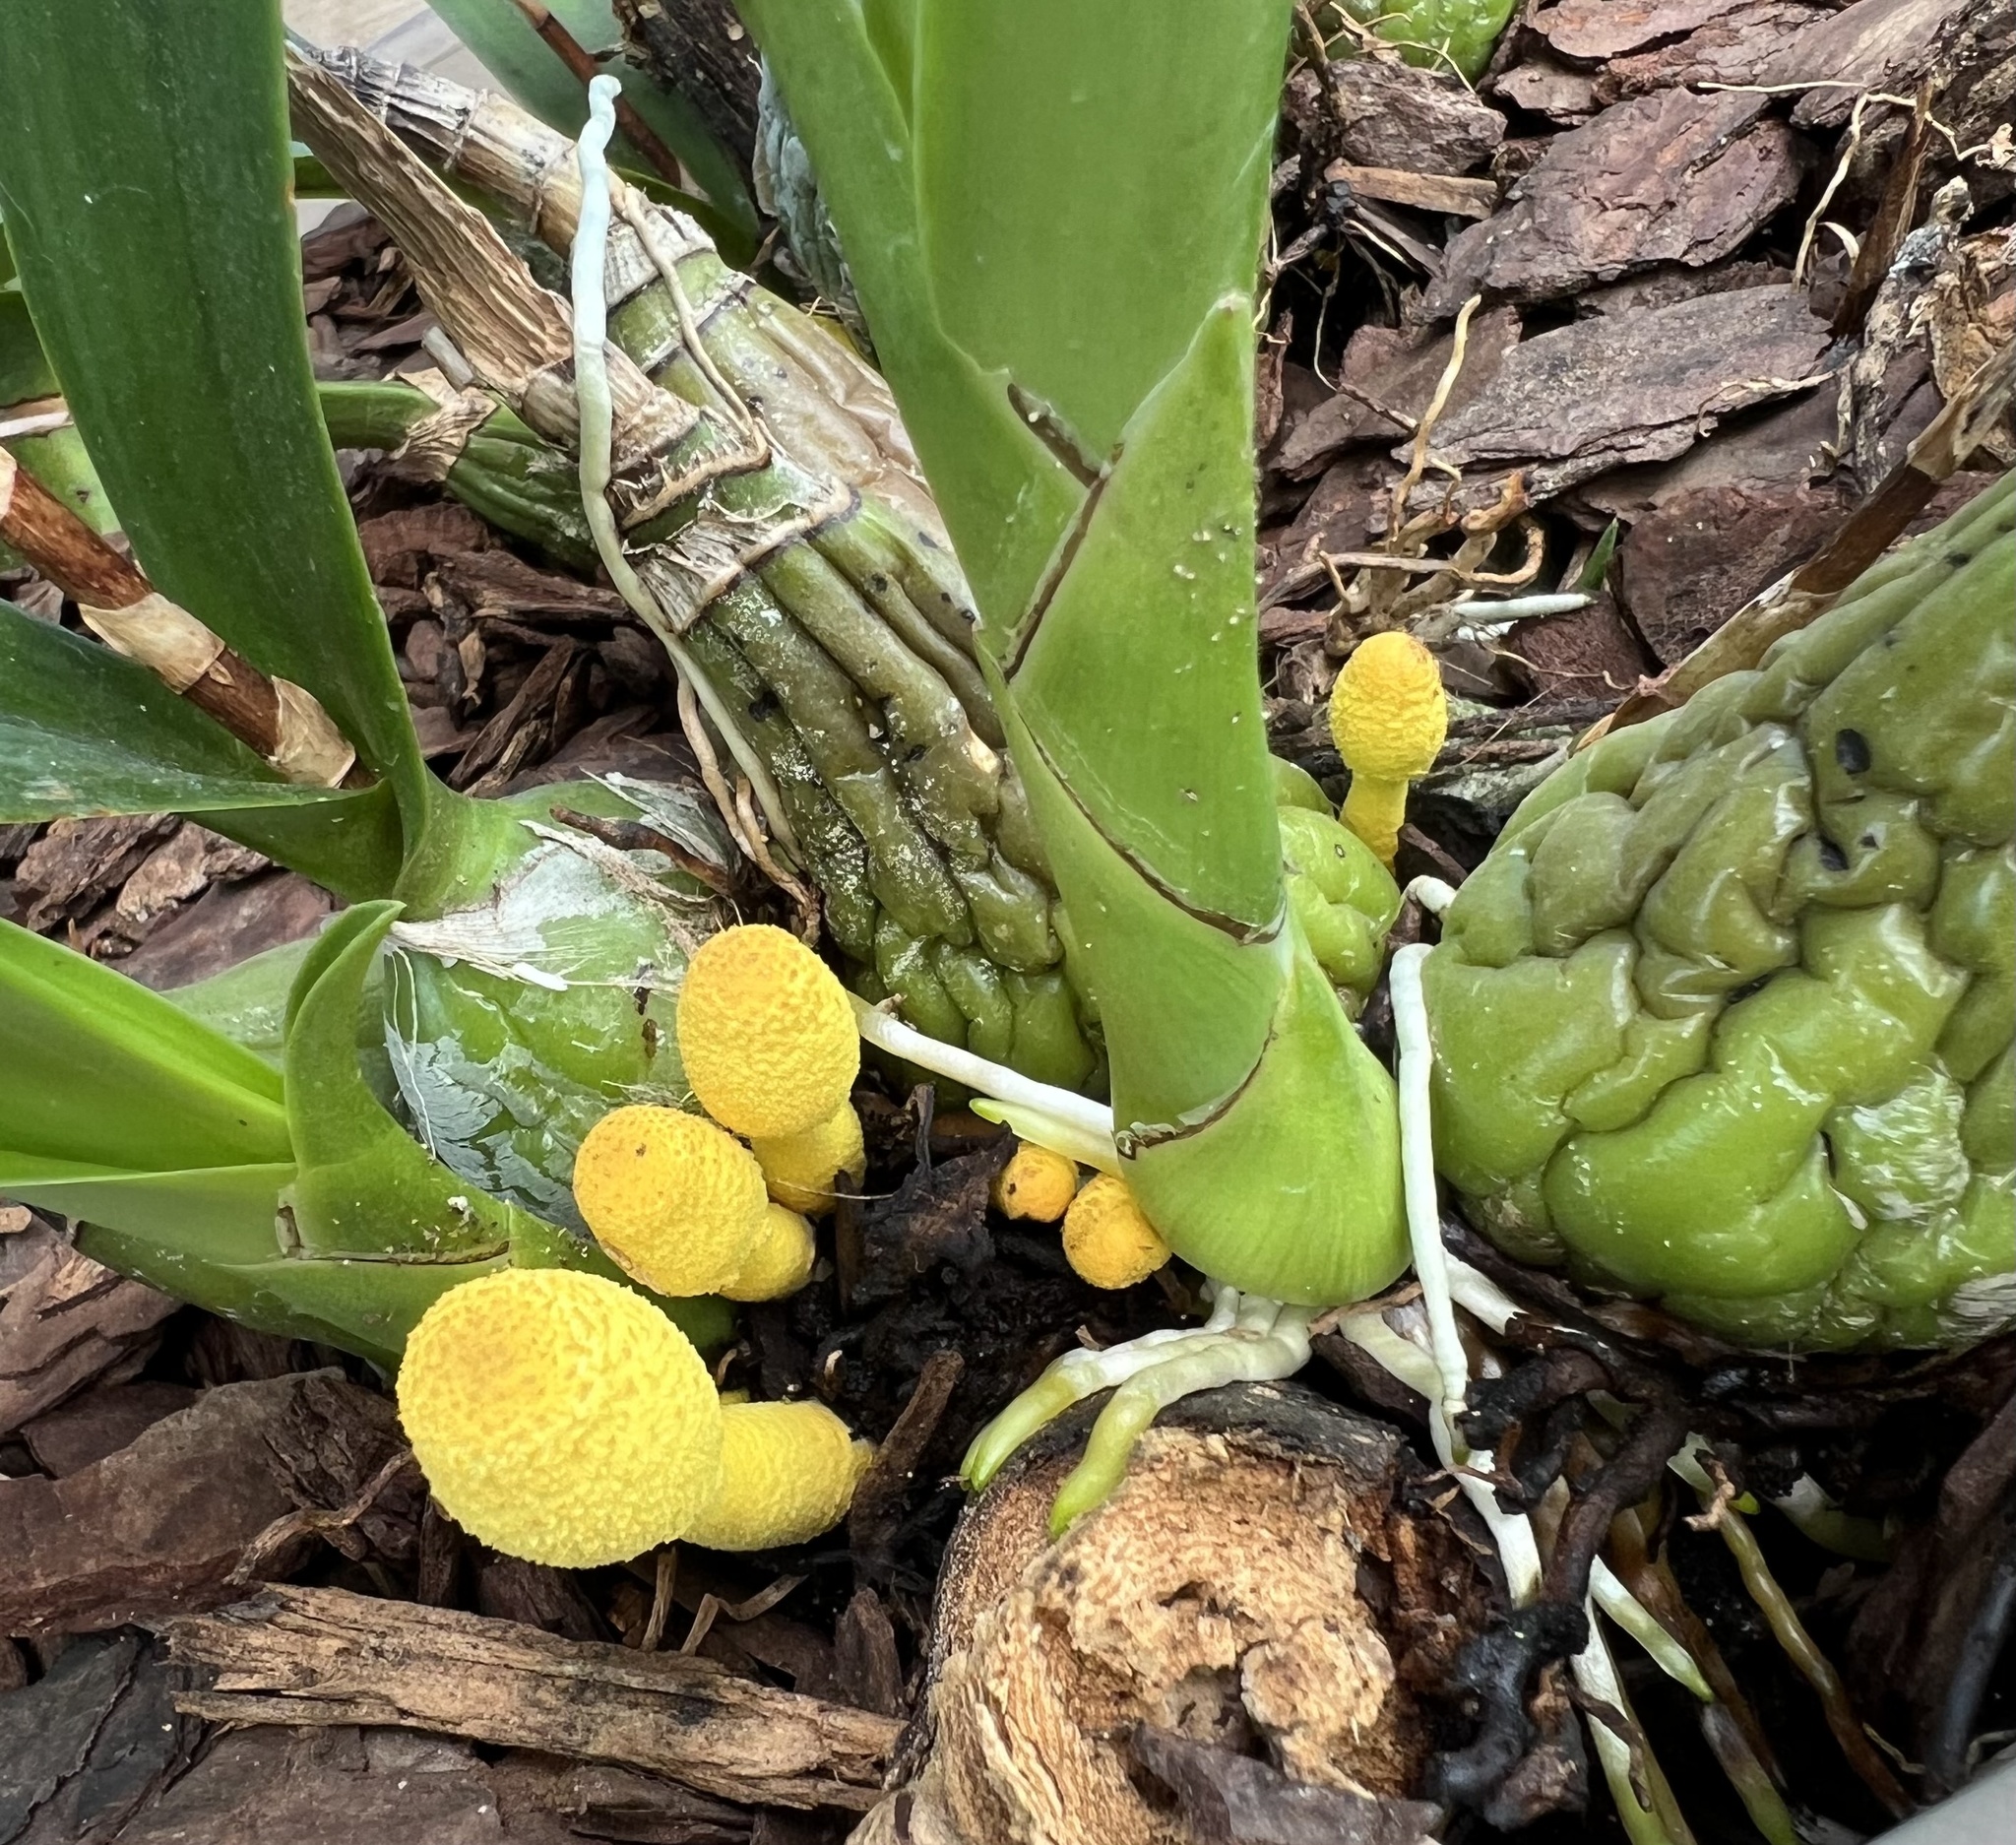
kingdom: Fungi
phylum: Basidiomycota
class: Agaricomycetes
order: Agaricales
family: Agaricaceae
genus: Leucocoprinus
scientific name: Leucocoprinus birnbaumii
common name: Plantpot dapperling
